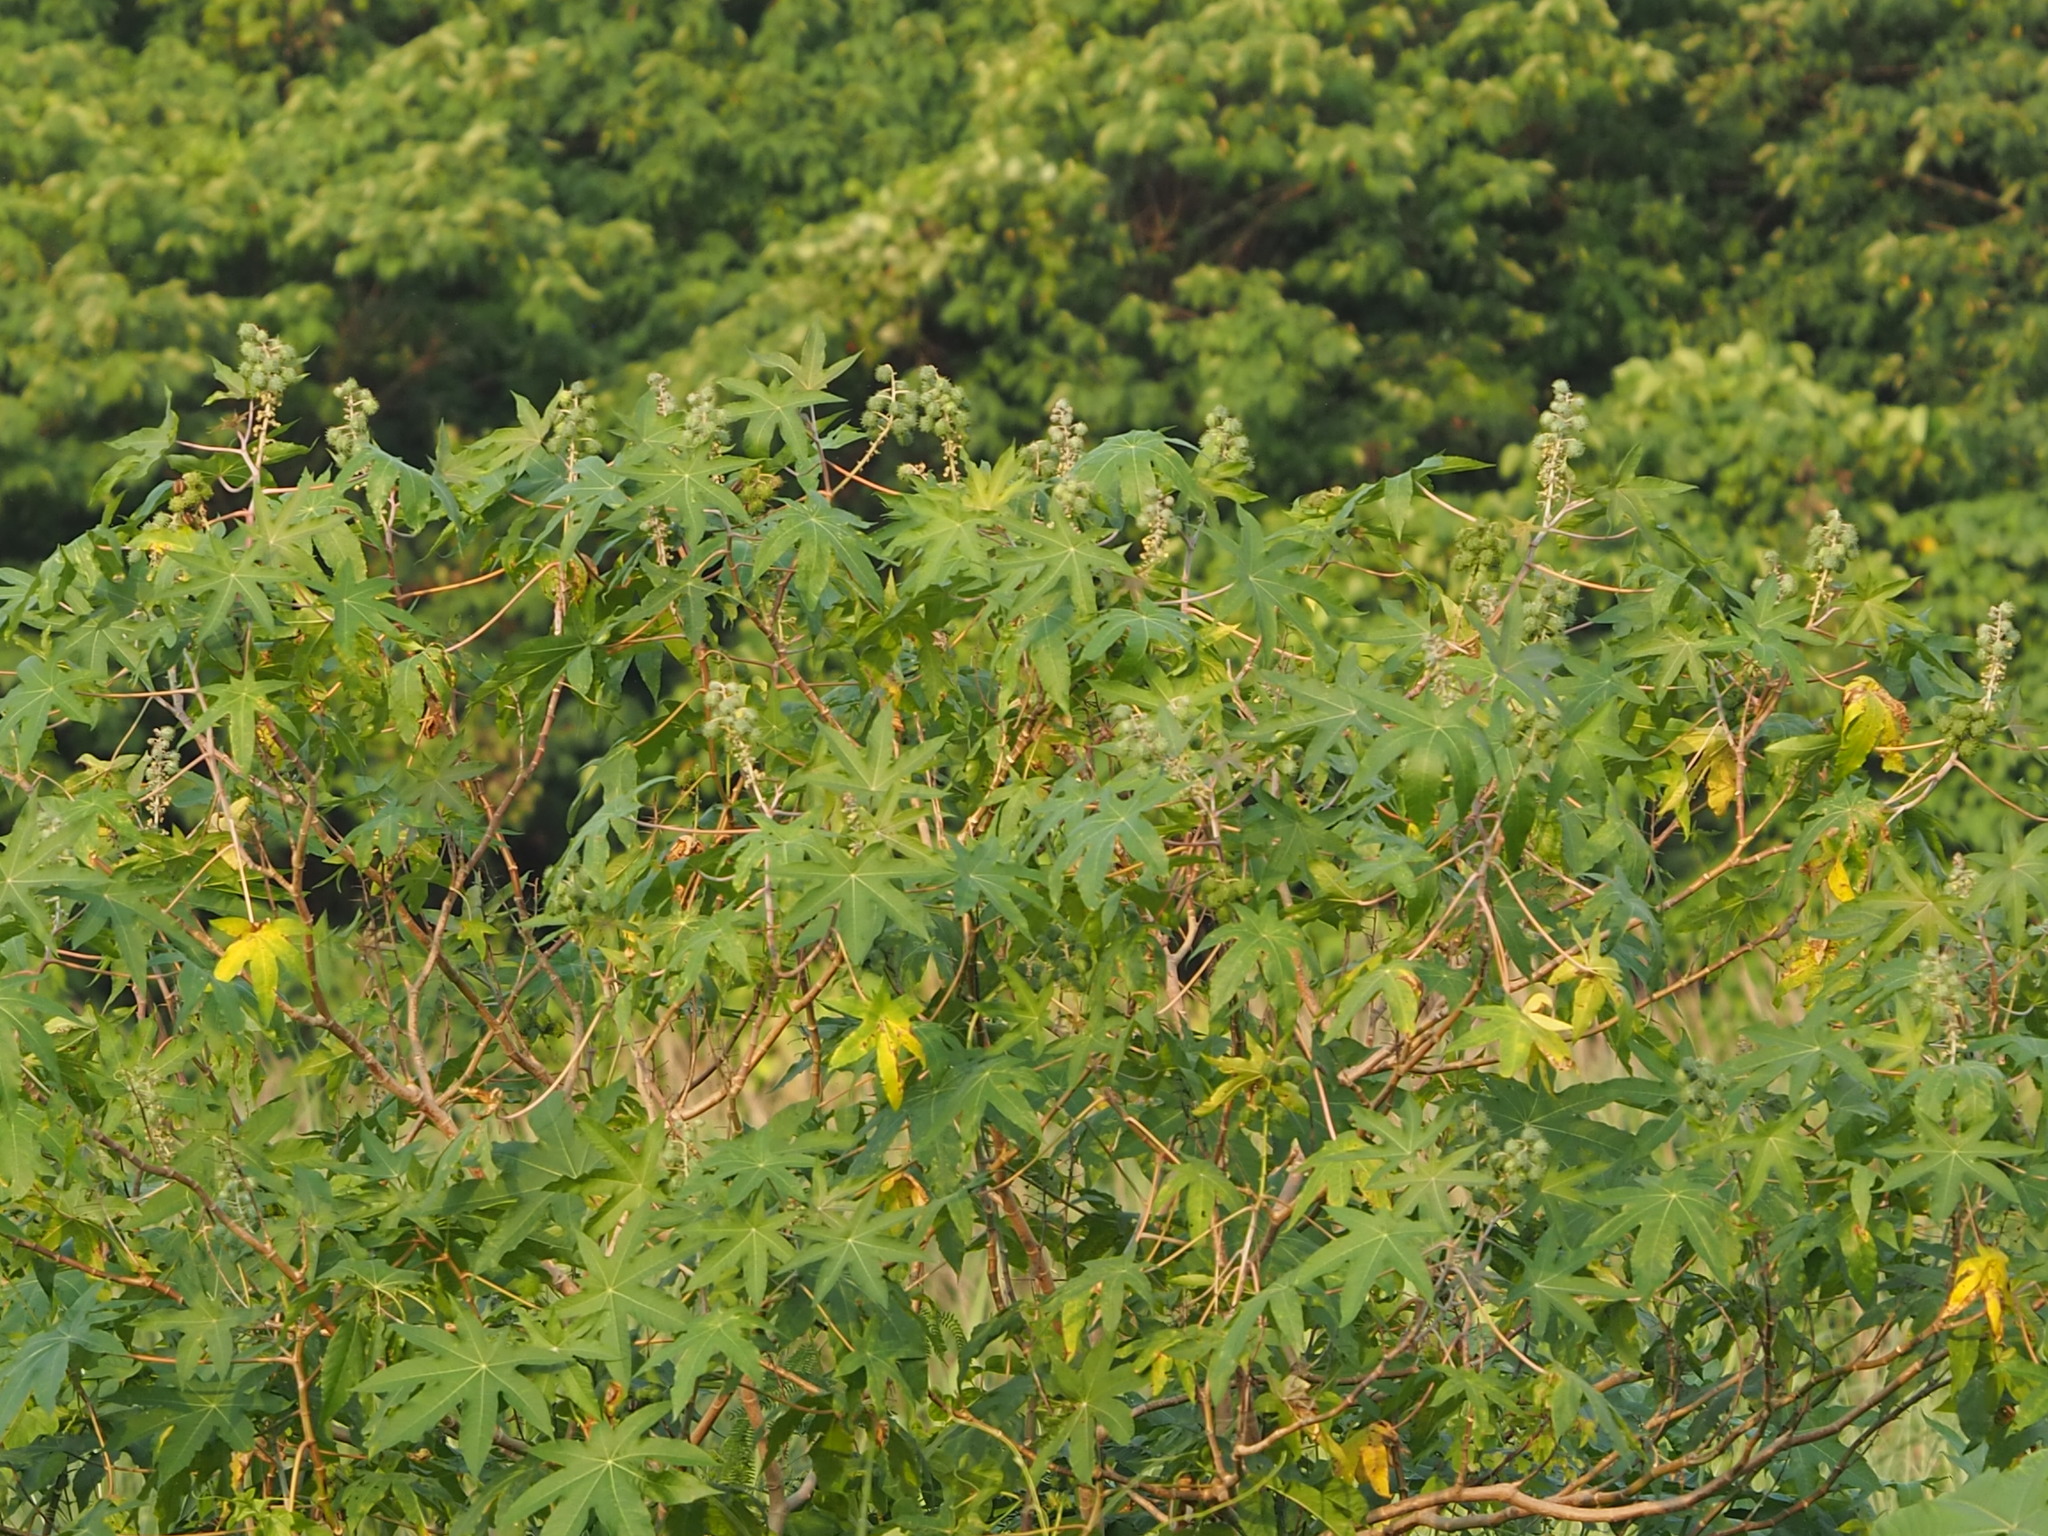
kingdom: Plantae
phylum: Tracheophyta
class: Magnoliopsida
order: Malpighiales
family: Euphorbiaceae
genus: Ricinus
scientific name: Ricinus communis
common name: Castor-oil-plant
